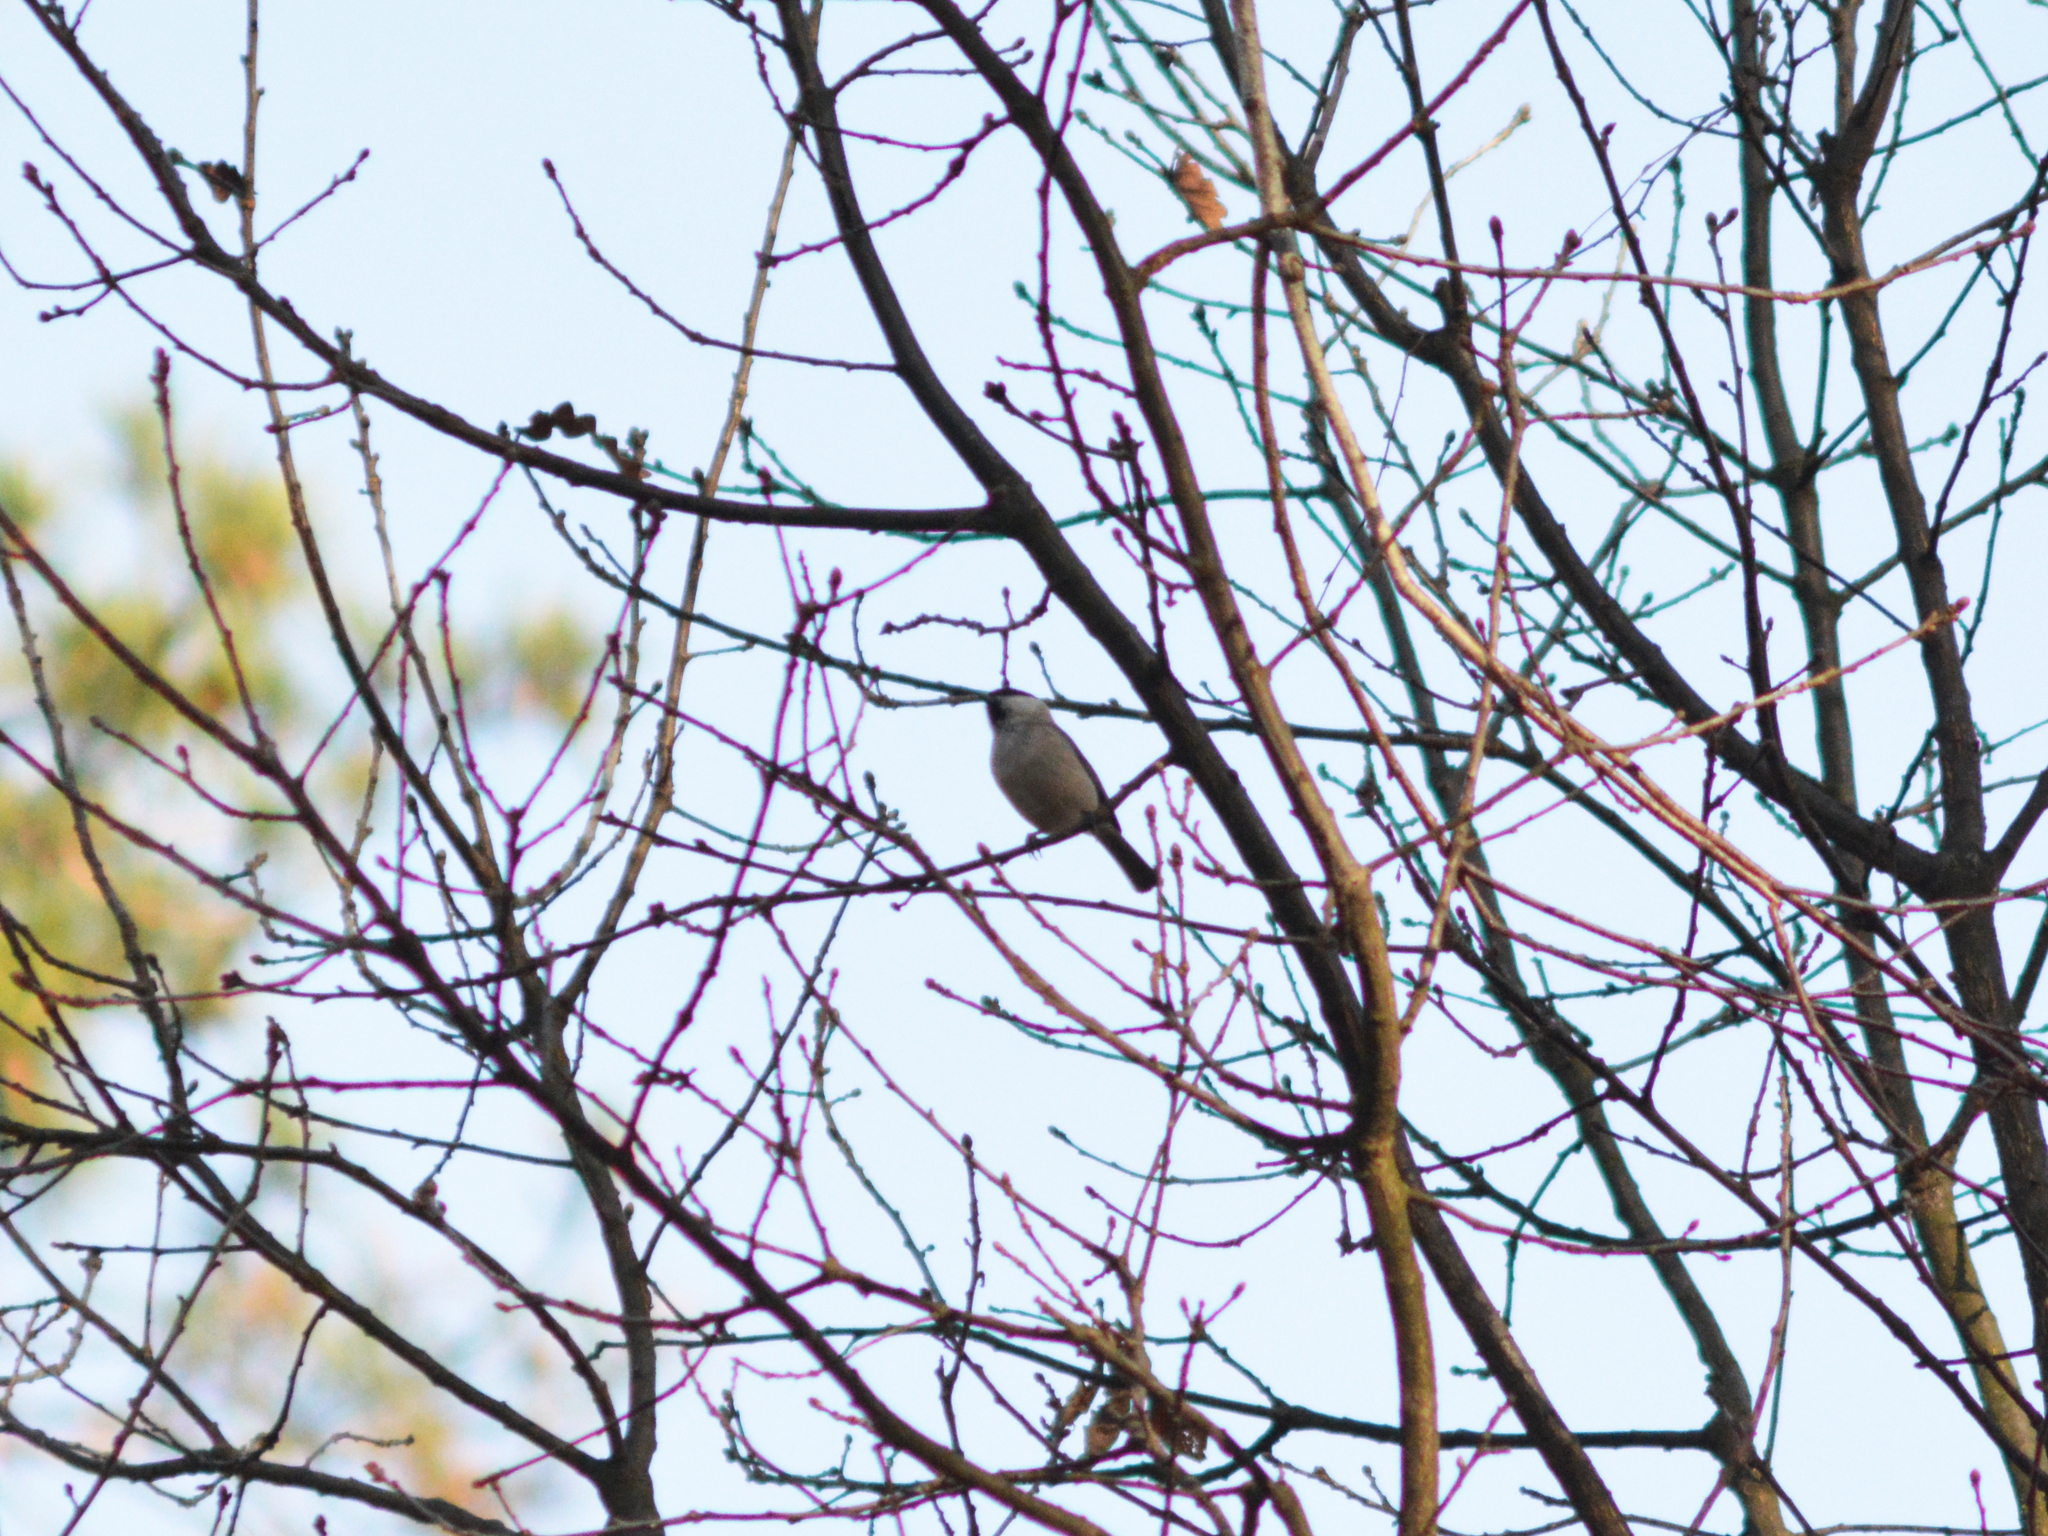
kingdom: Animalia
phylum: Chordata
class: Aves
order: Passeriformes
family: Paridae
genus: Poecile
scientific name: Poecile palustris
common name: Marsh tit
